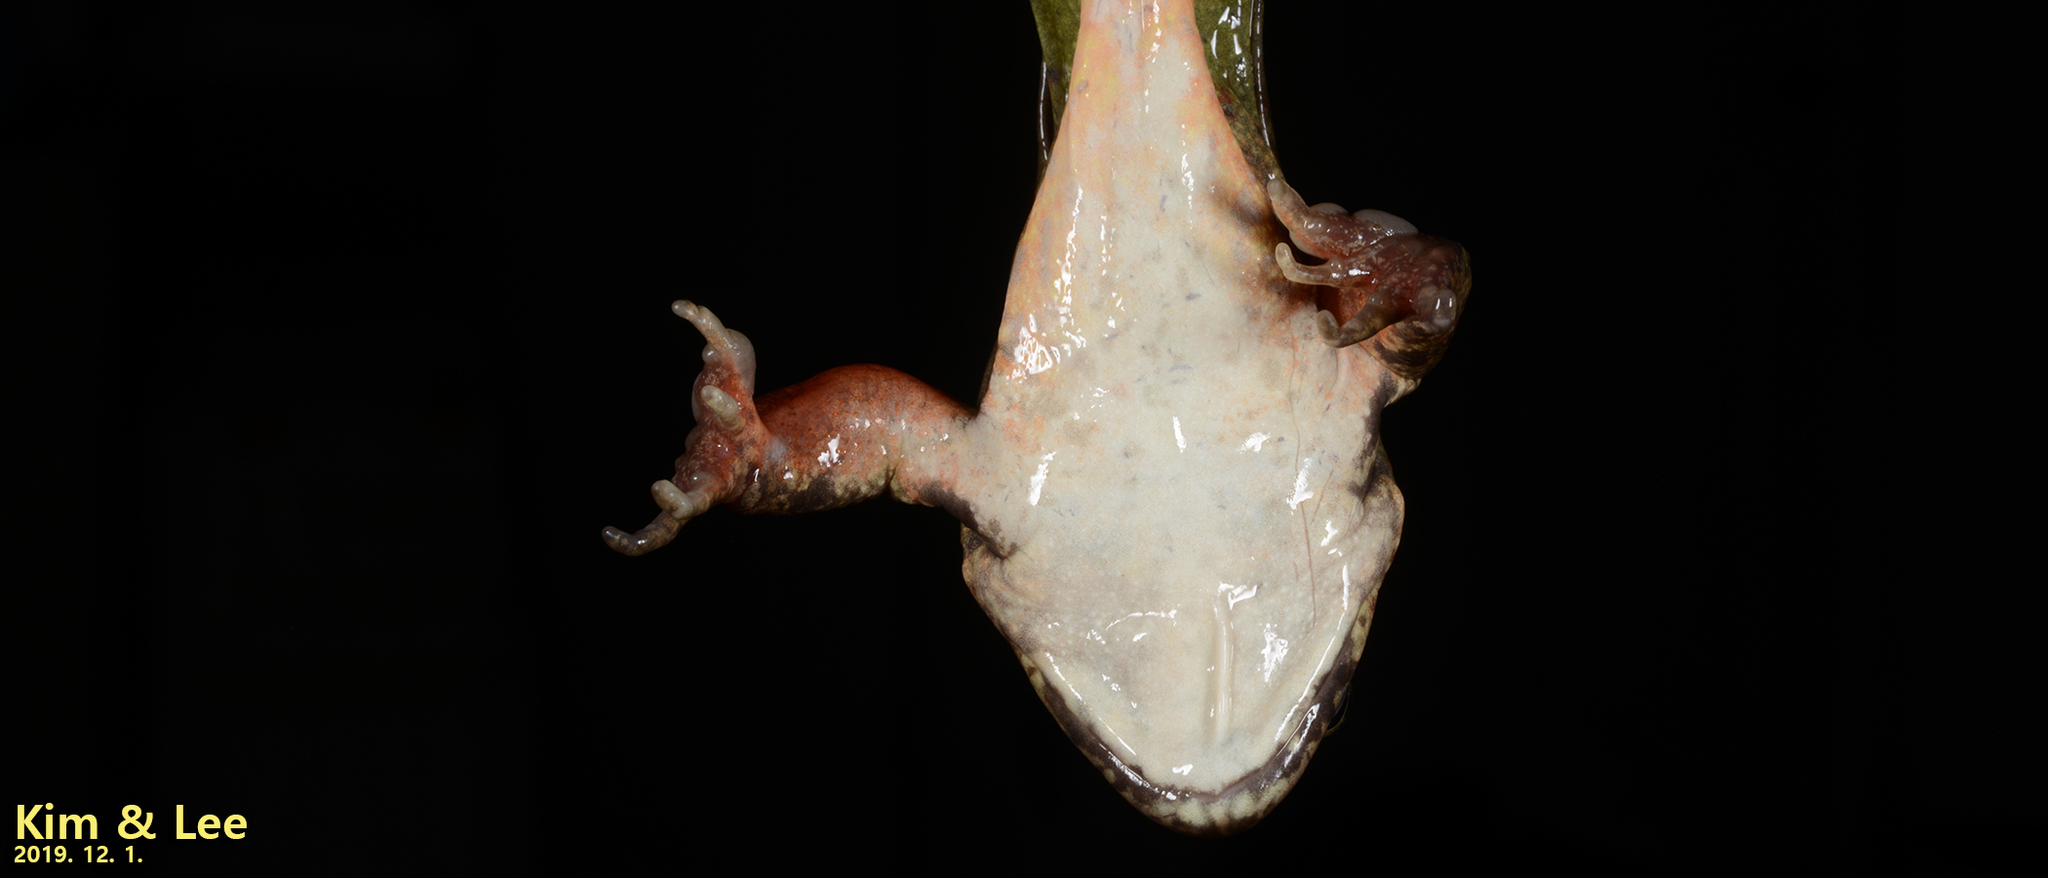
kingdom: Animalia
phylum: Chordata
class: Amphibia
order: Anura
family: Ranidae
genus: Rana
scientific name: Rana dybowskii
